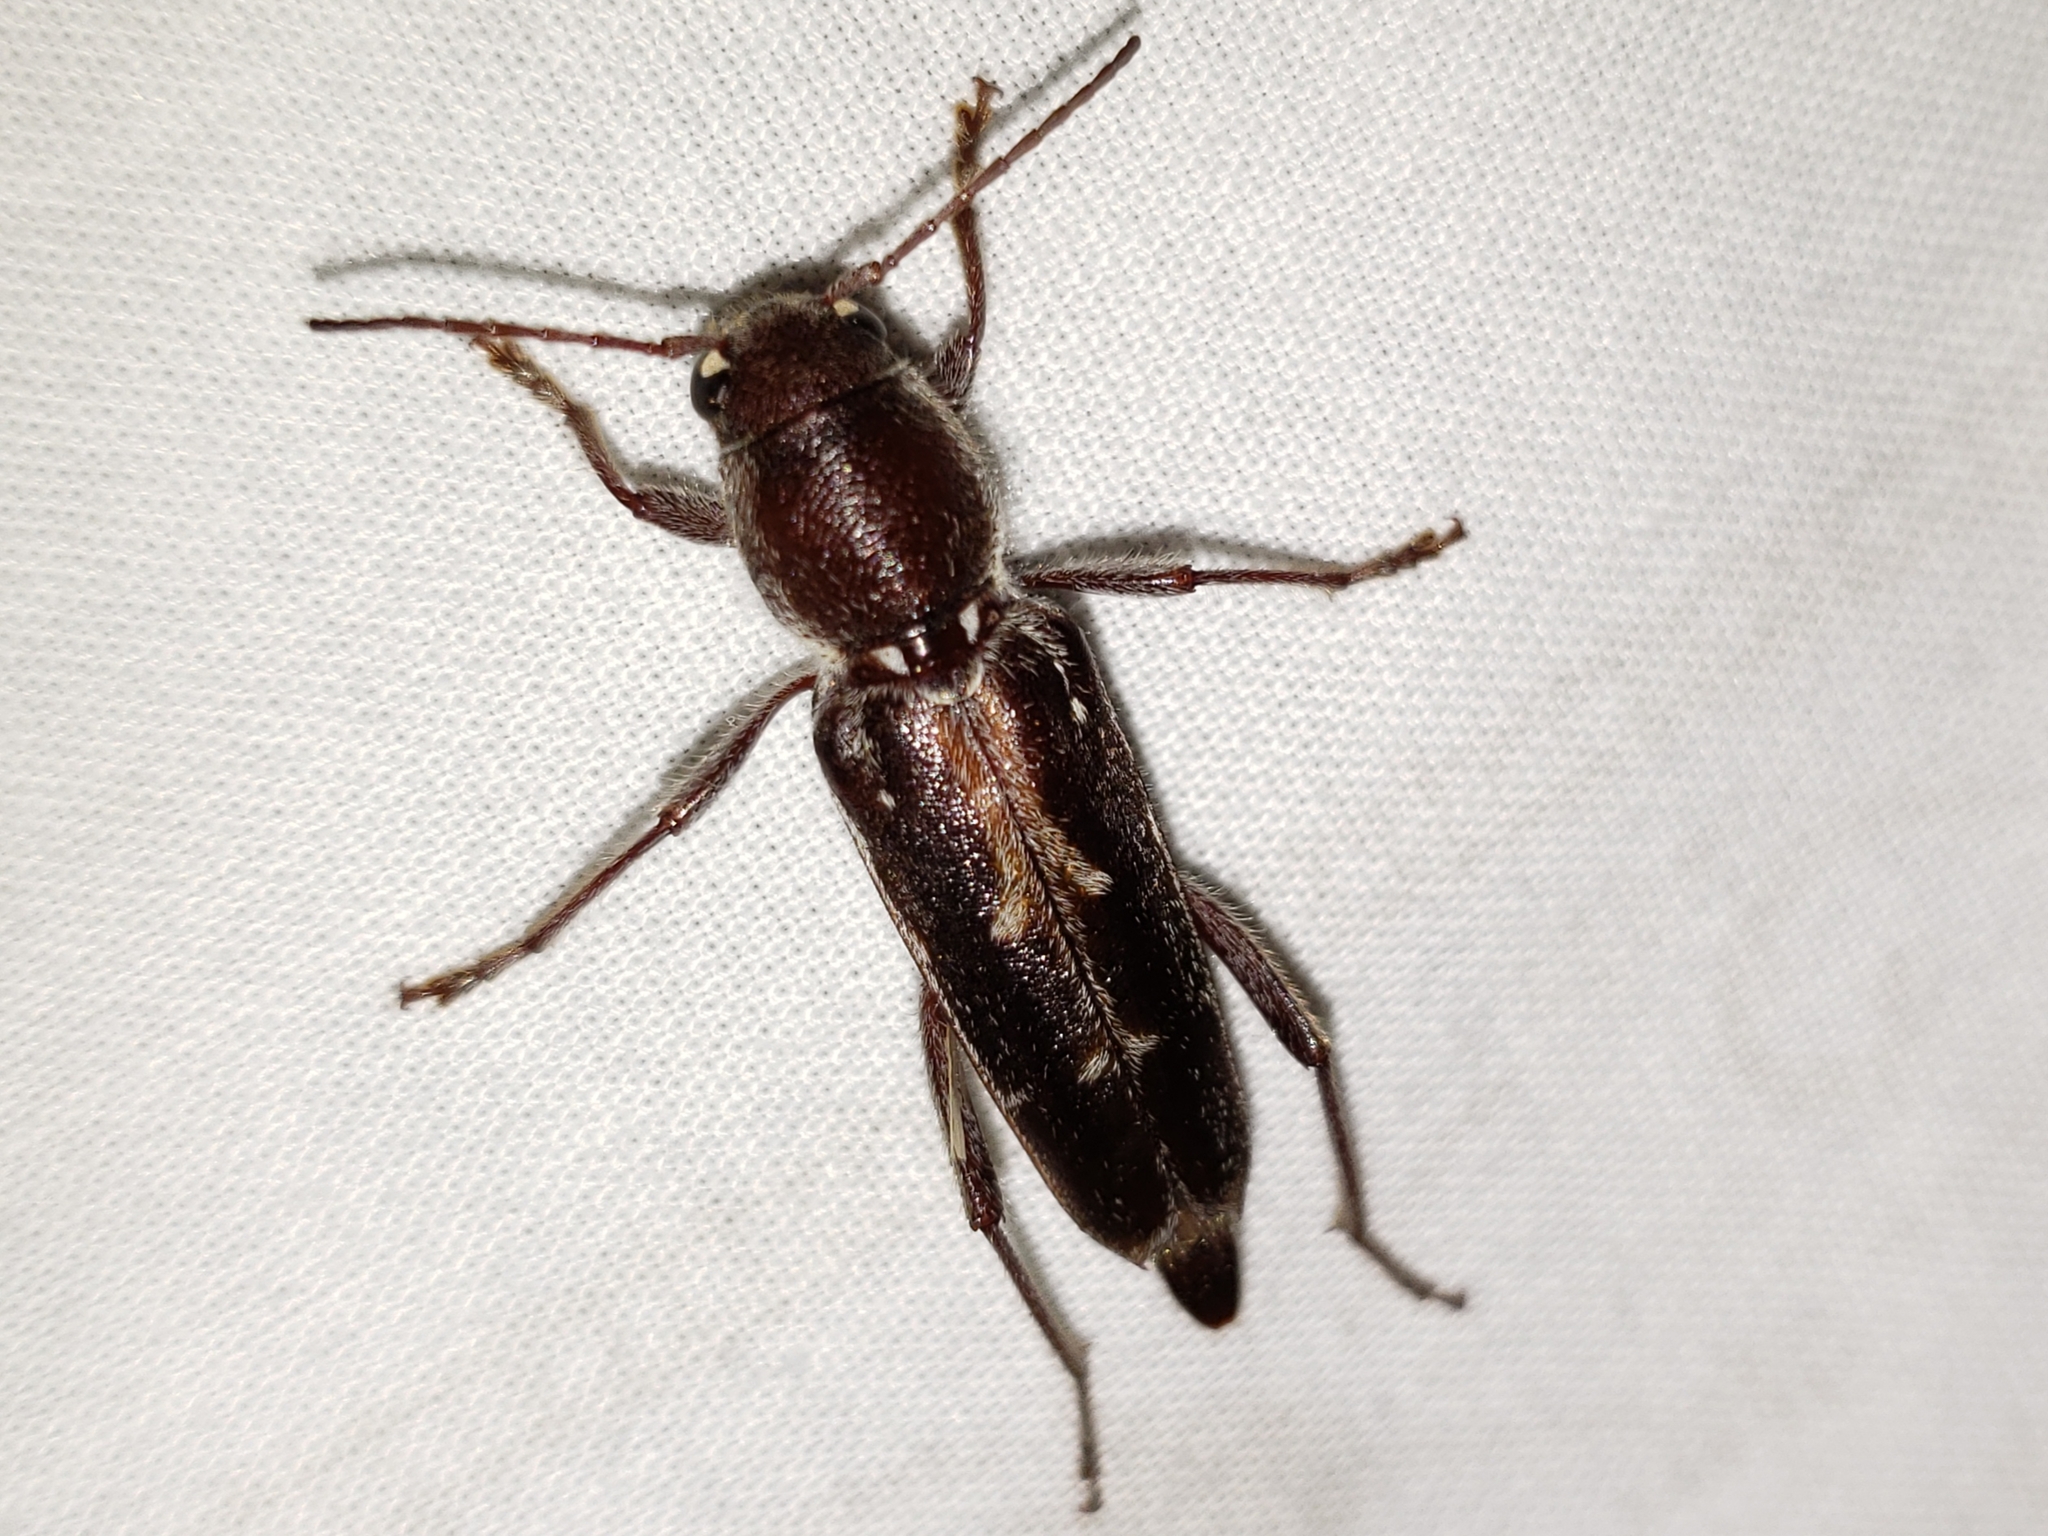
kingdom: Animalia
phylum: Arthropoda
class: Insecta
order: Coleoptera
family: Cerambycidae
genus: Xylotrechus
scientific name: Xylotrechus sagittatus
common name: Arrowhead borer
